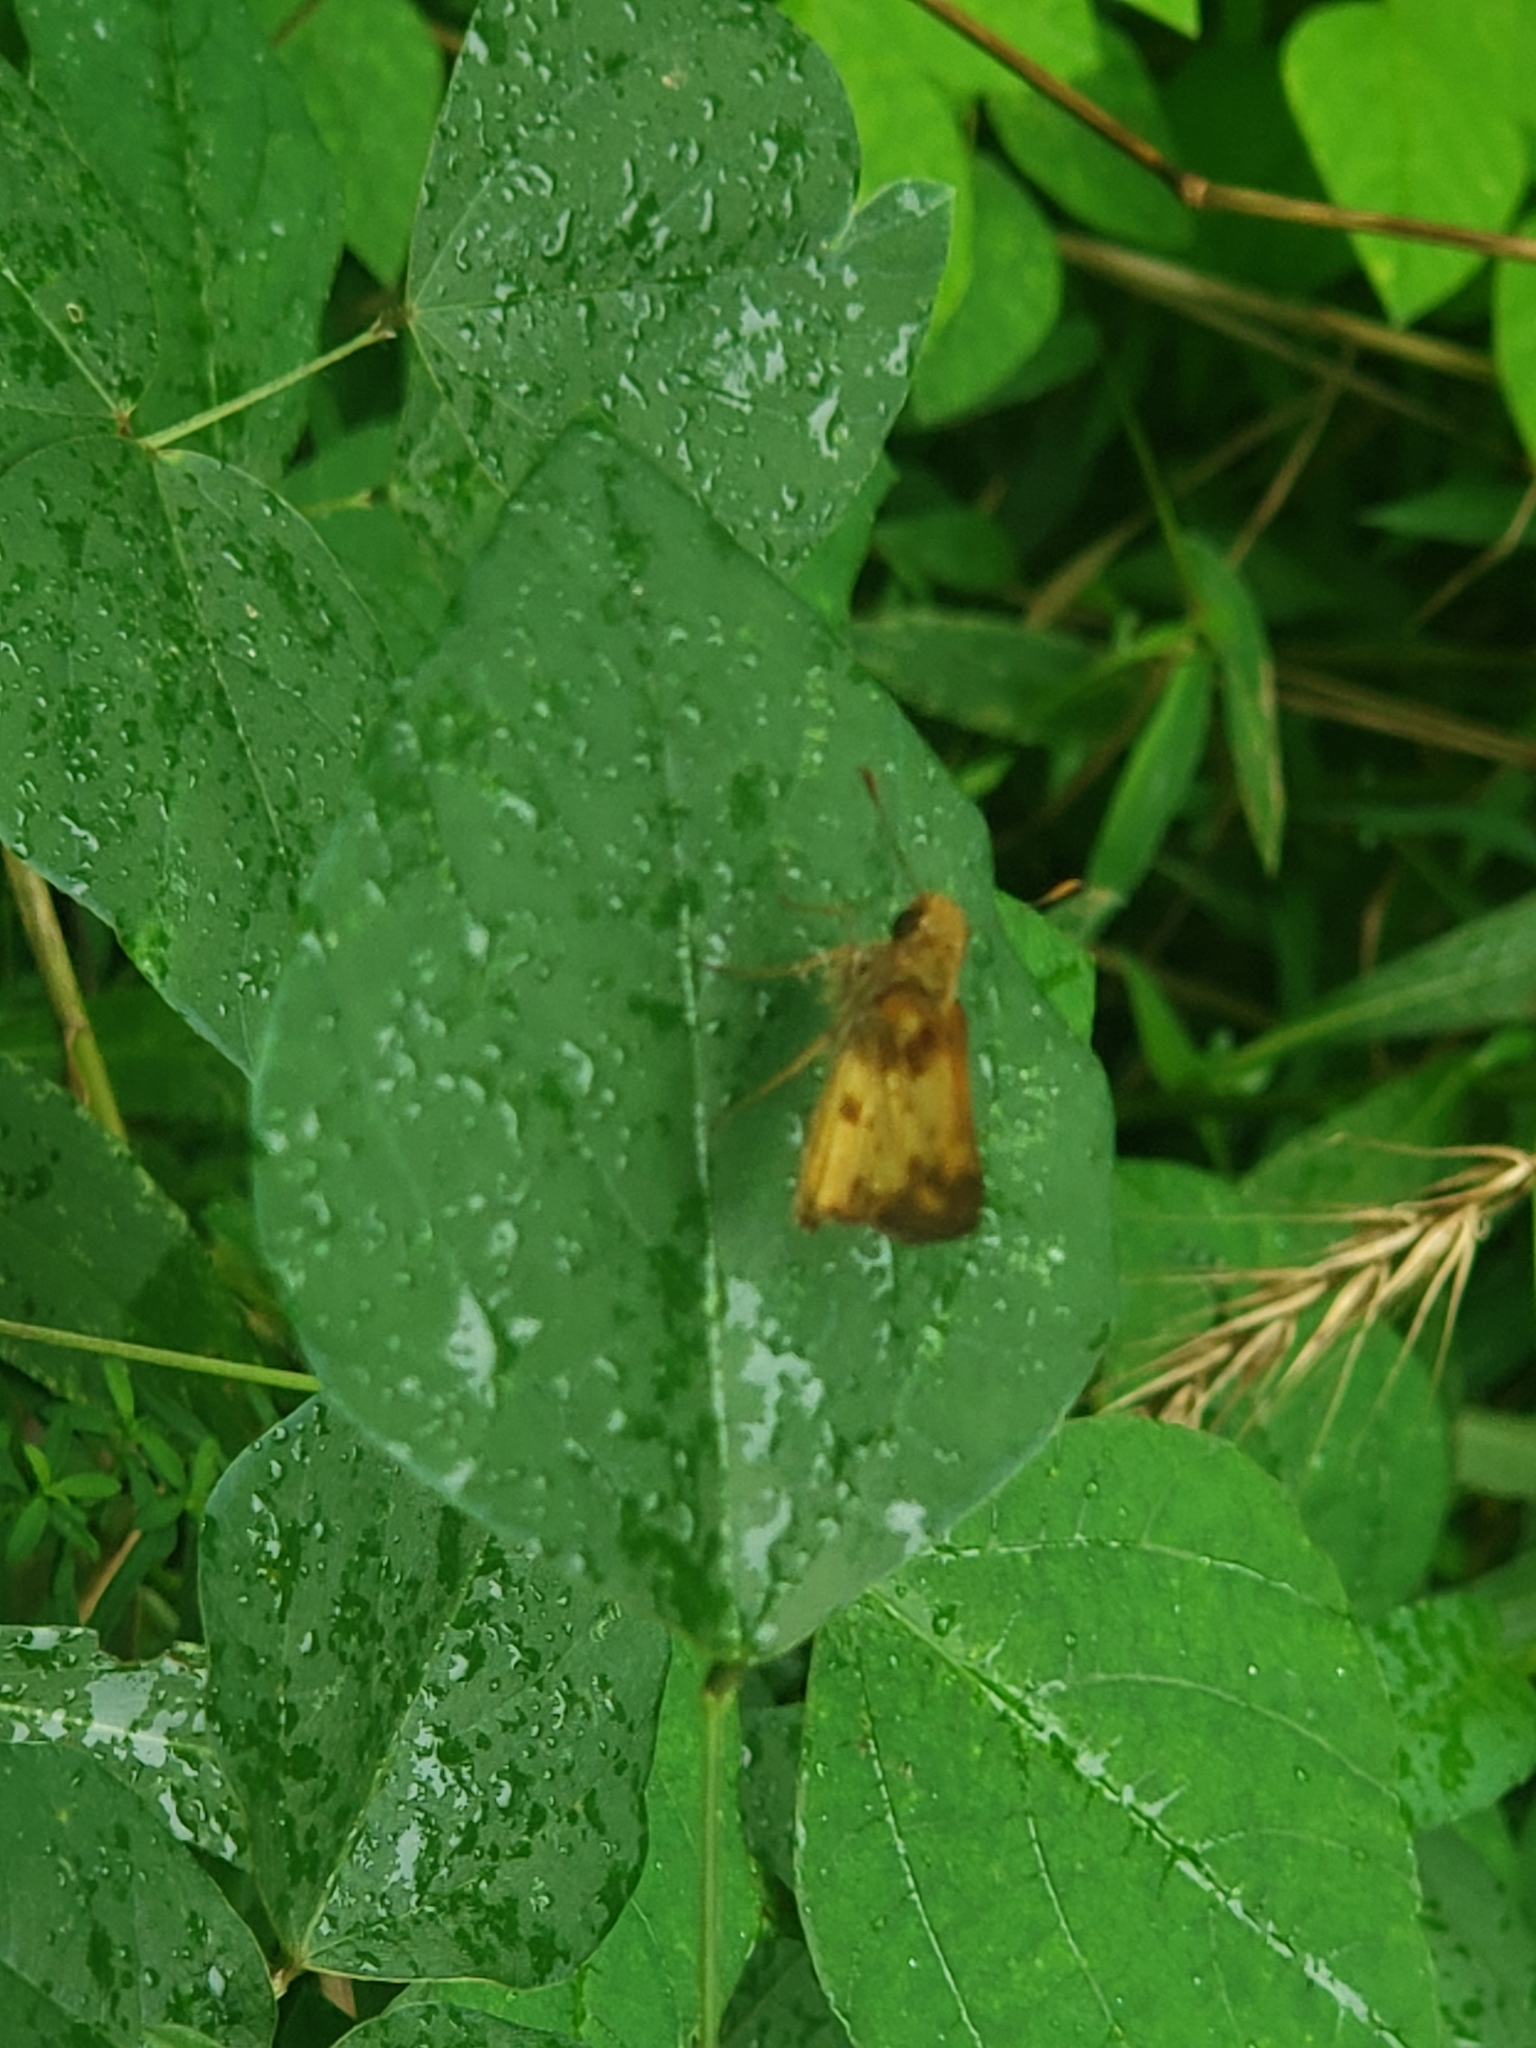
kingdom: Animalia
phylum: Arthropoda
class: Insecta
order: Lepidoptera
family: Hesperiidae
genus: Lon
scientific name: Lon zabulon
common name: Zabulon skipper
